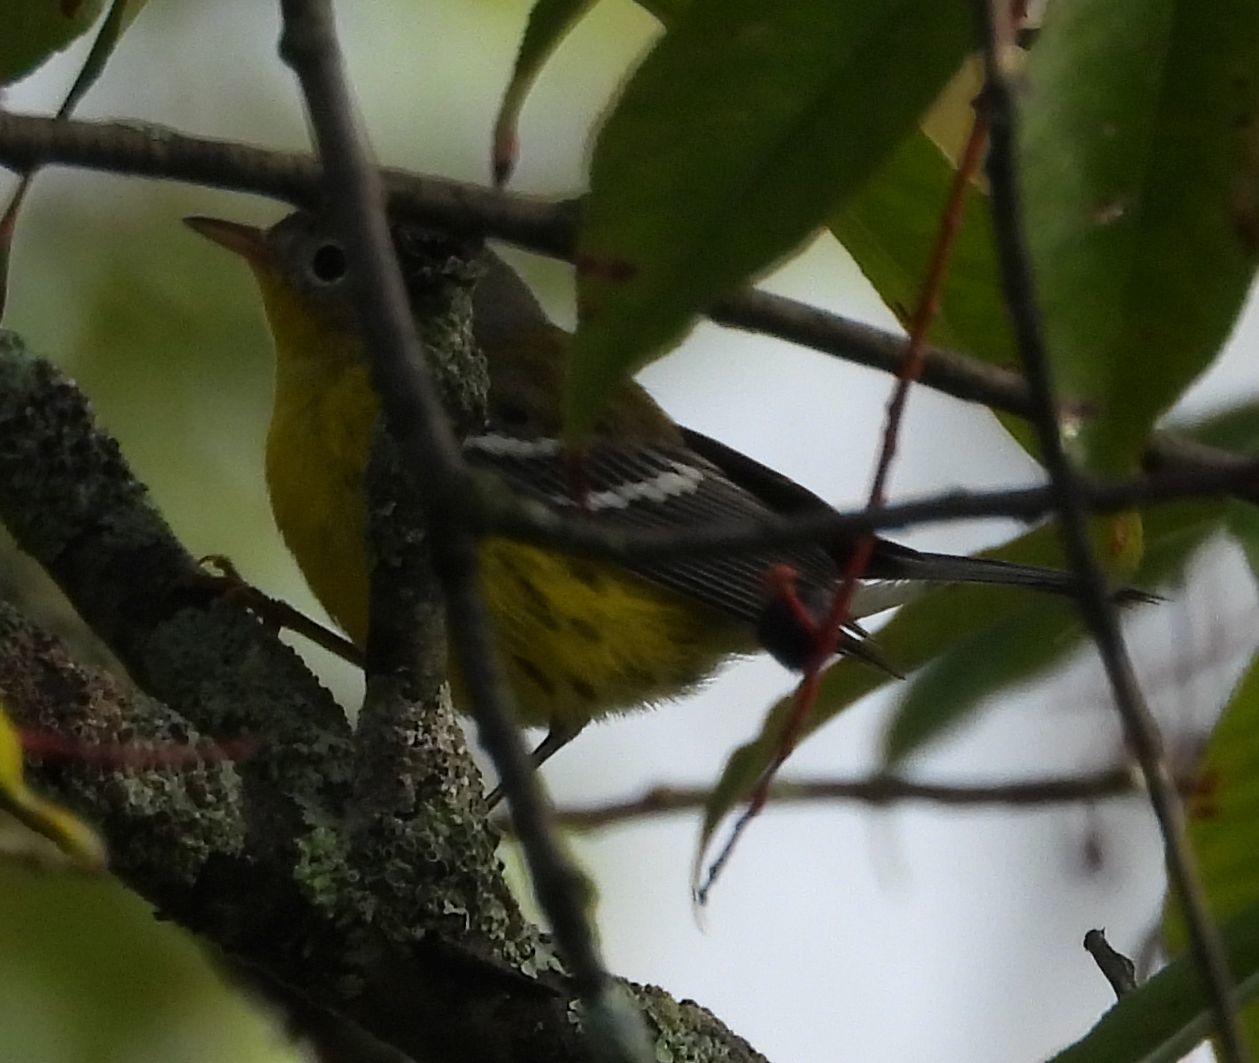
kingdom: Animalia
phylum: Chordata
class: Aves
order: Passeriformes
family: Parulidae
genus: Setophaga
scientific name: Setophaga magnolia
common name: Magnolia warbler
